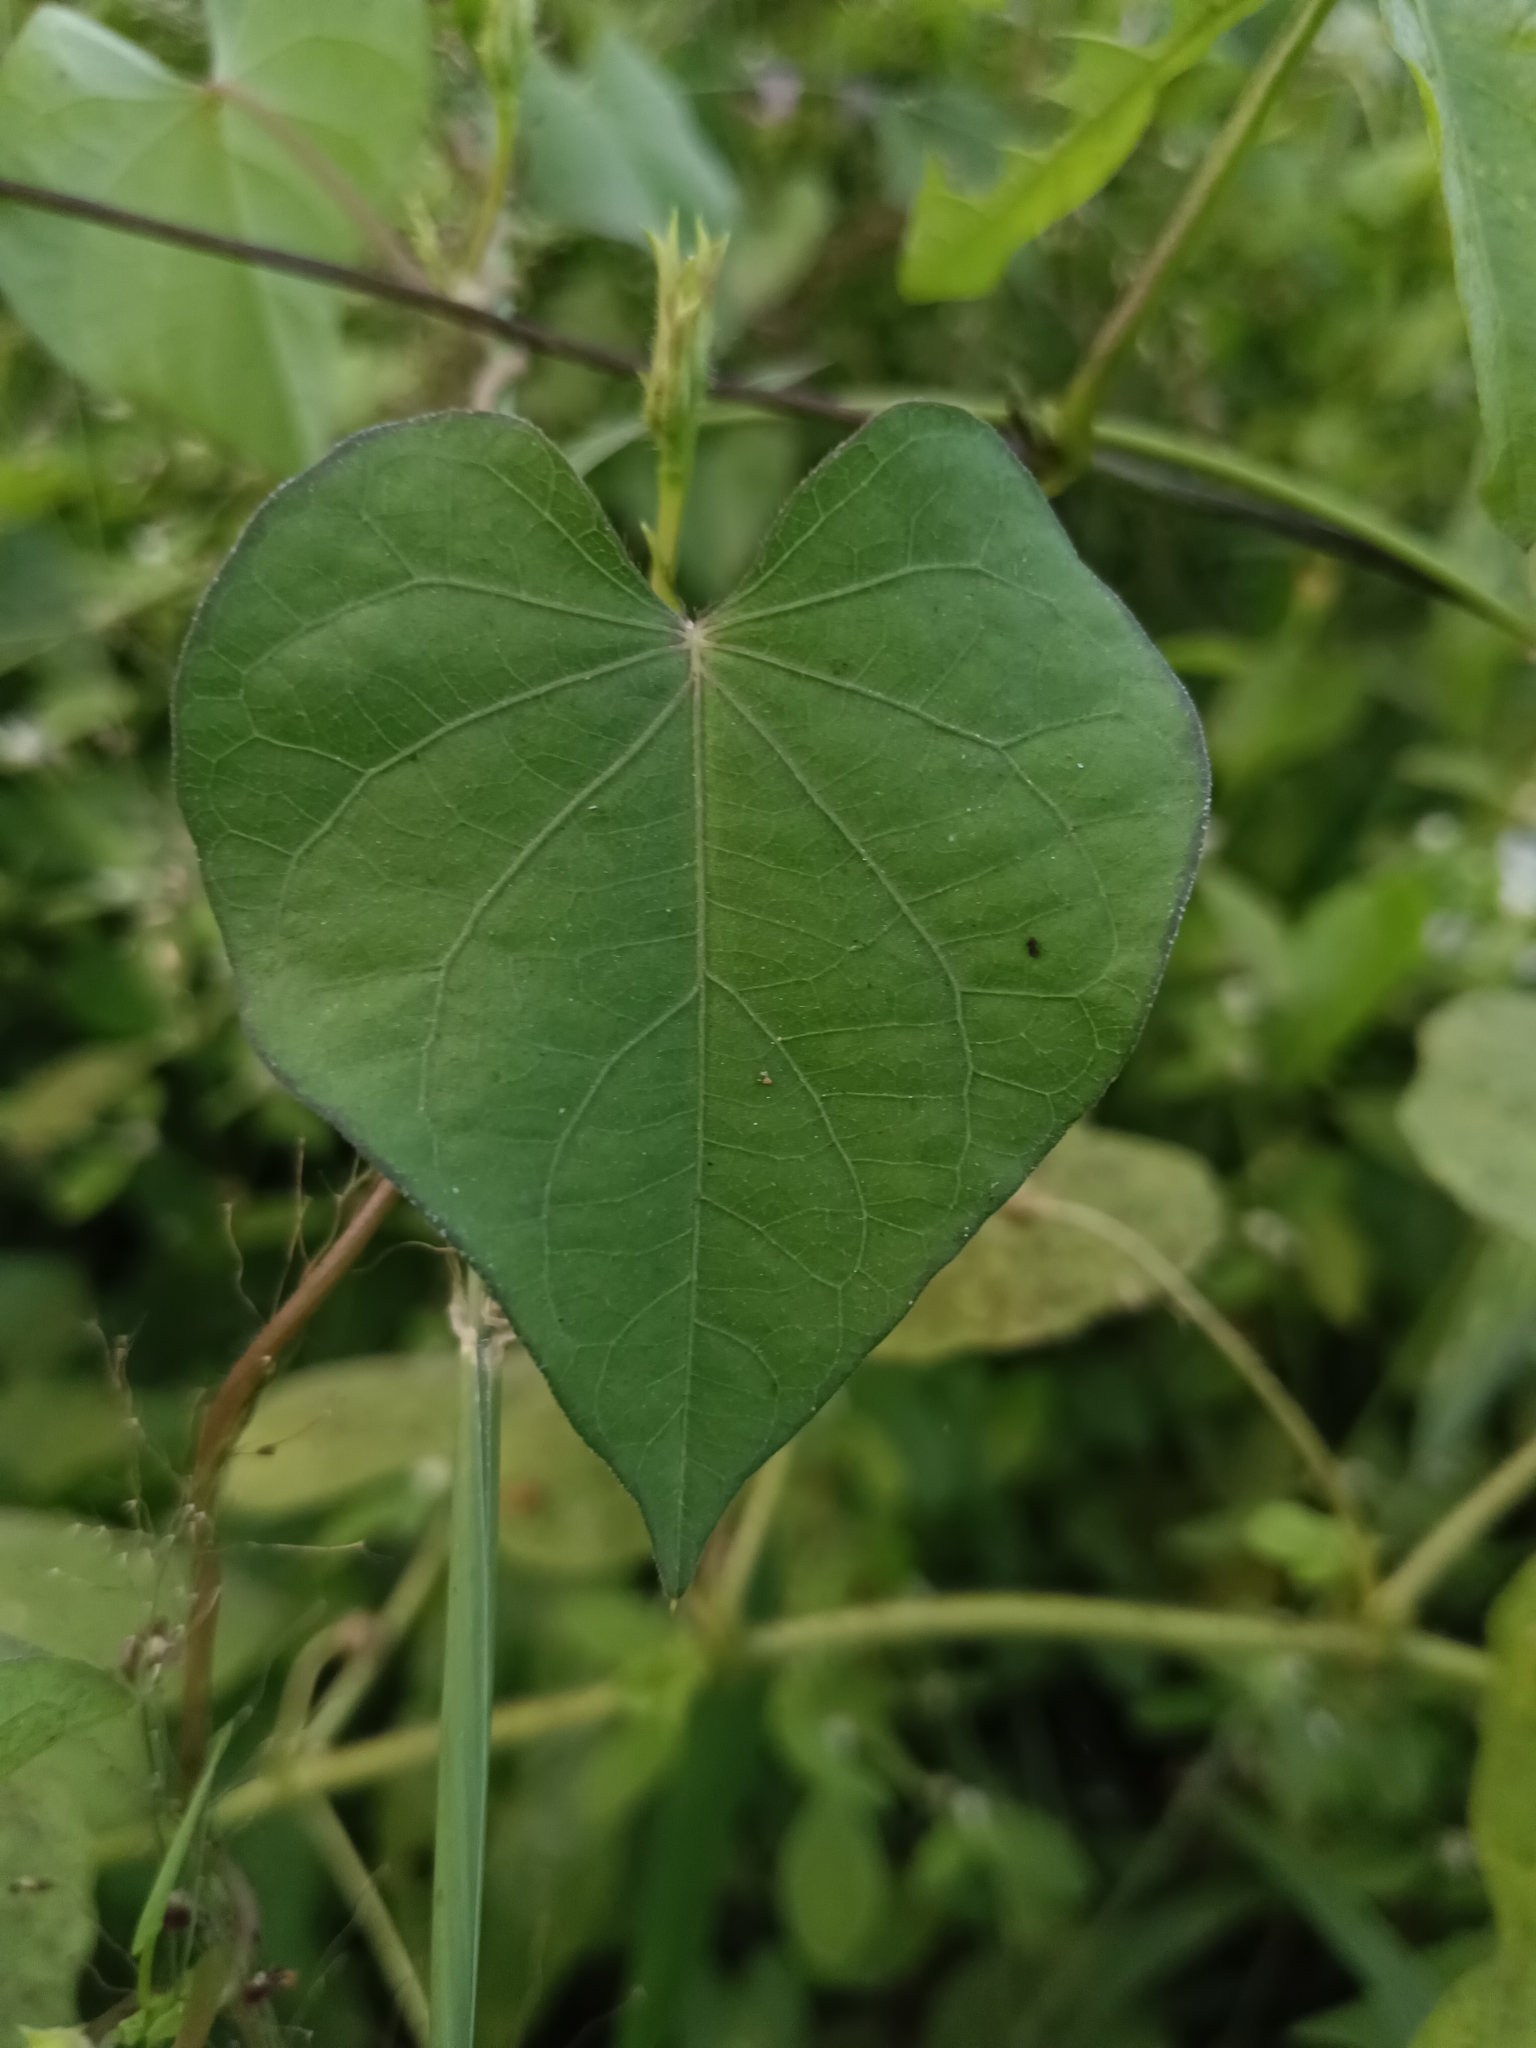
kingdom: Plantae
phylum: Tracheophyta
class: Magnoliopsida
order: Solanales
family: Convolvulaceae
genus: Ipomoea
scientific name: Ipomoea triloba
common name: Little-bell
